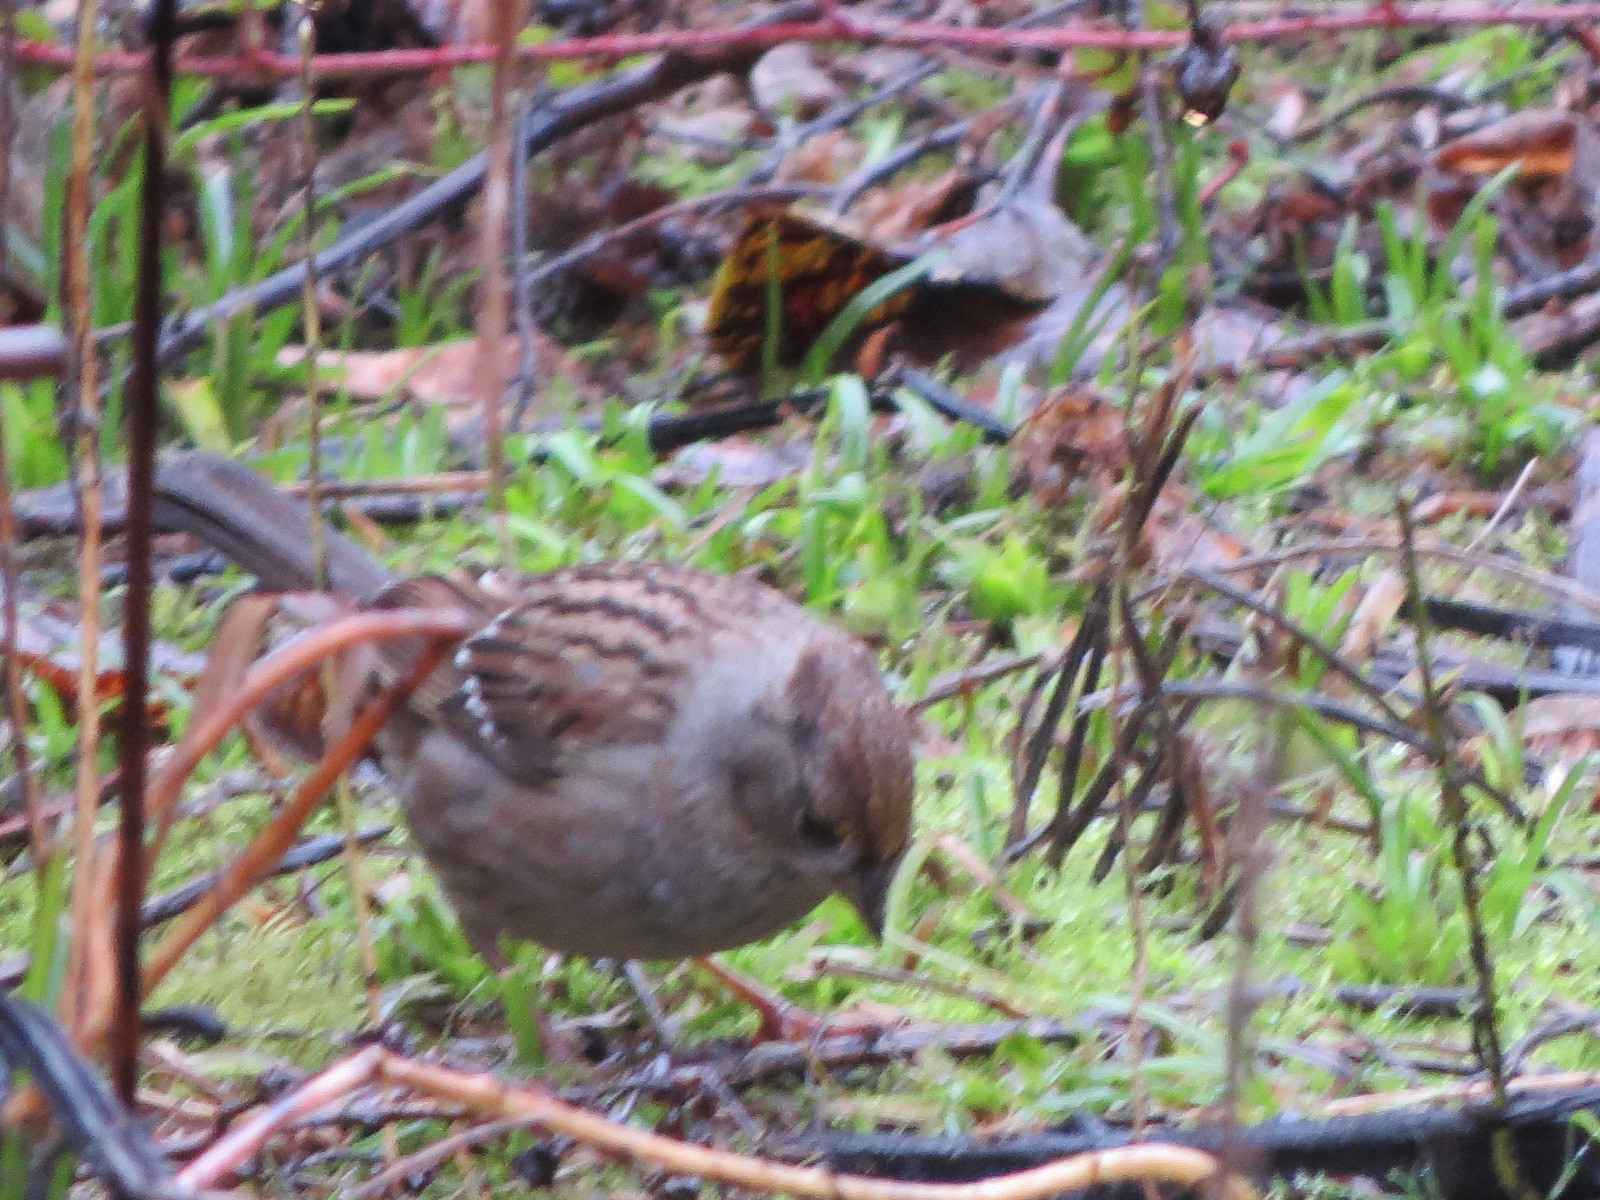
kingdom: Animalia
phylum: Chordata
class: Aves
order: Passeriformes
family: Passerellidae
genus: Zonotrichia
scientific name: Zonotrichia atricapilla
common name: Golden-crowned sparrow
